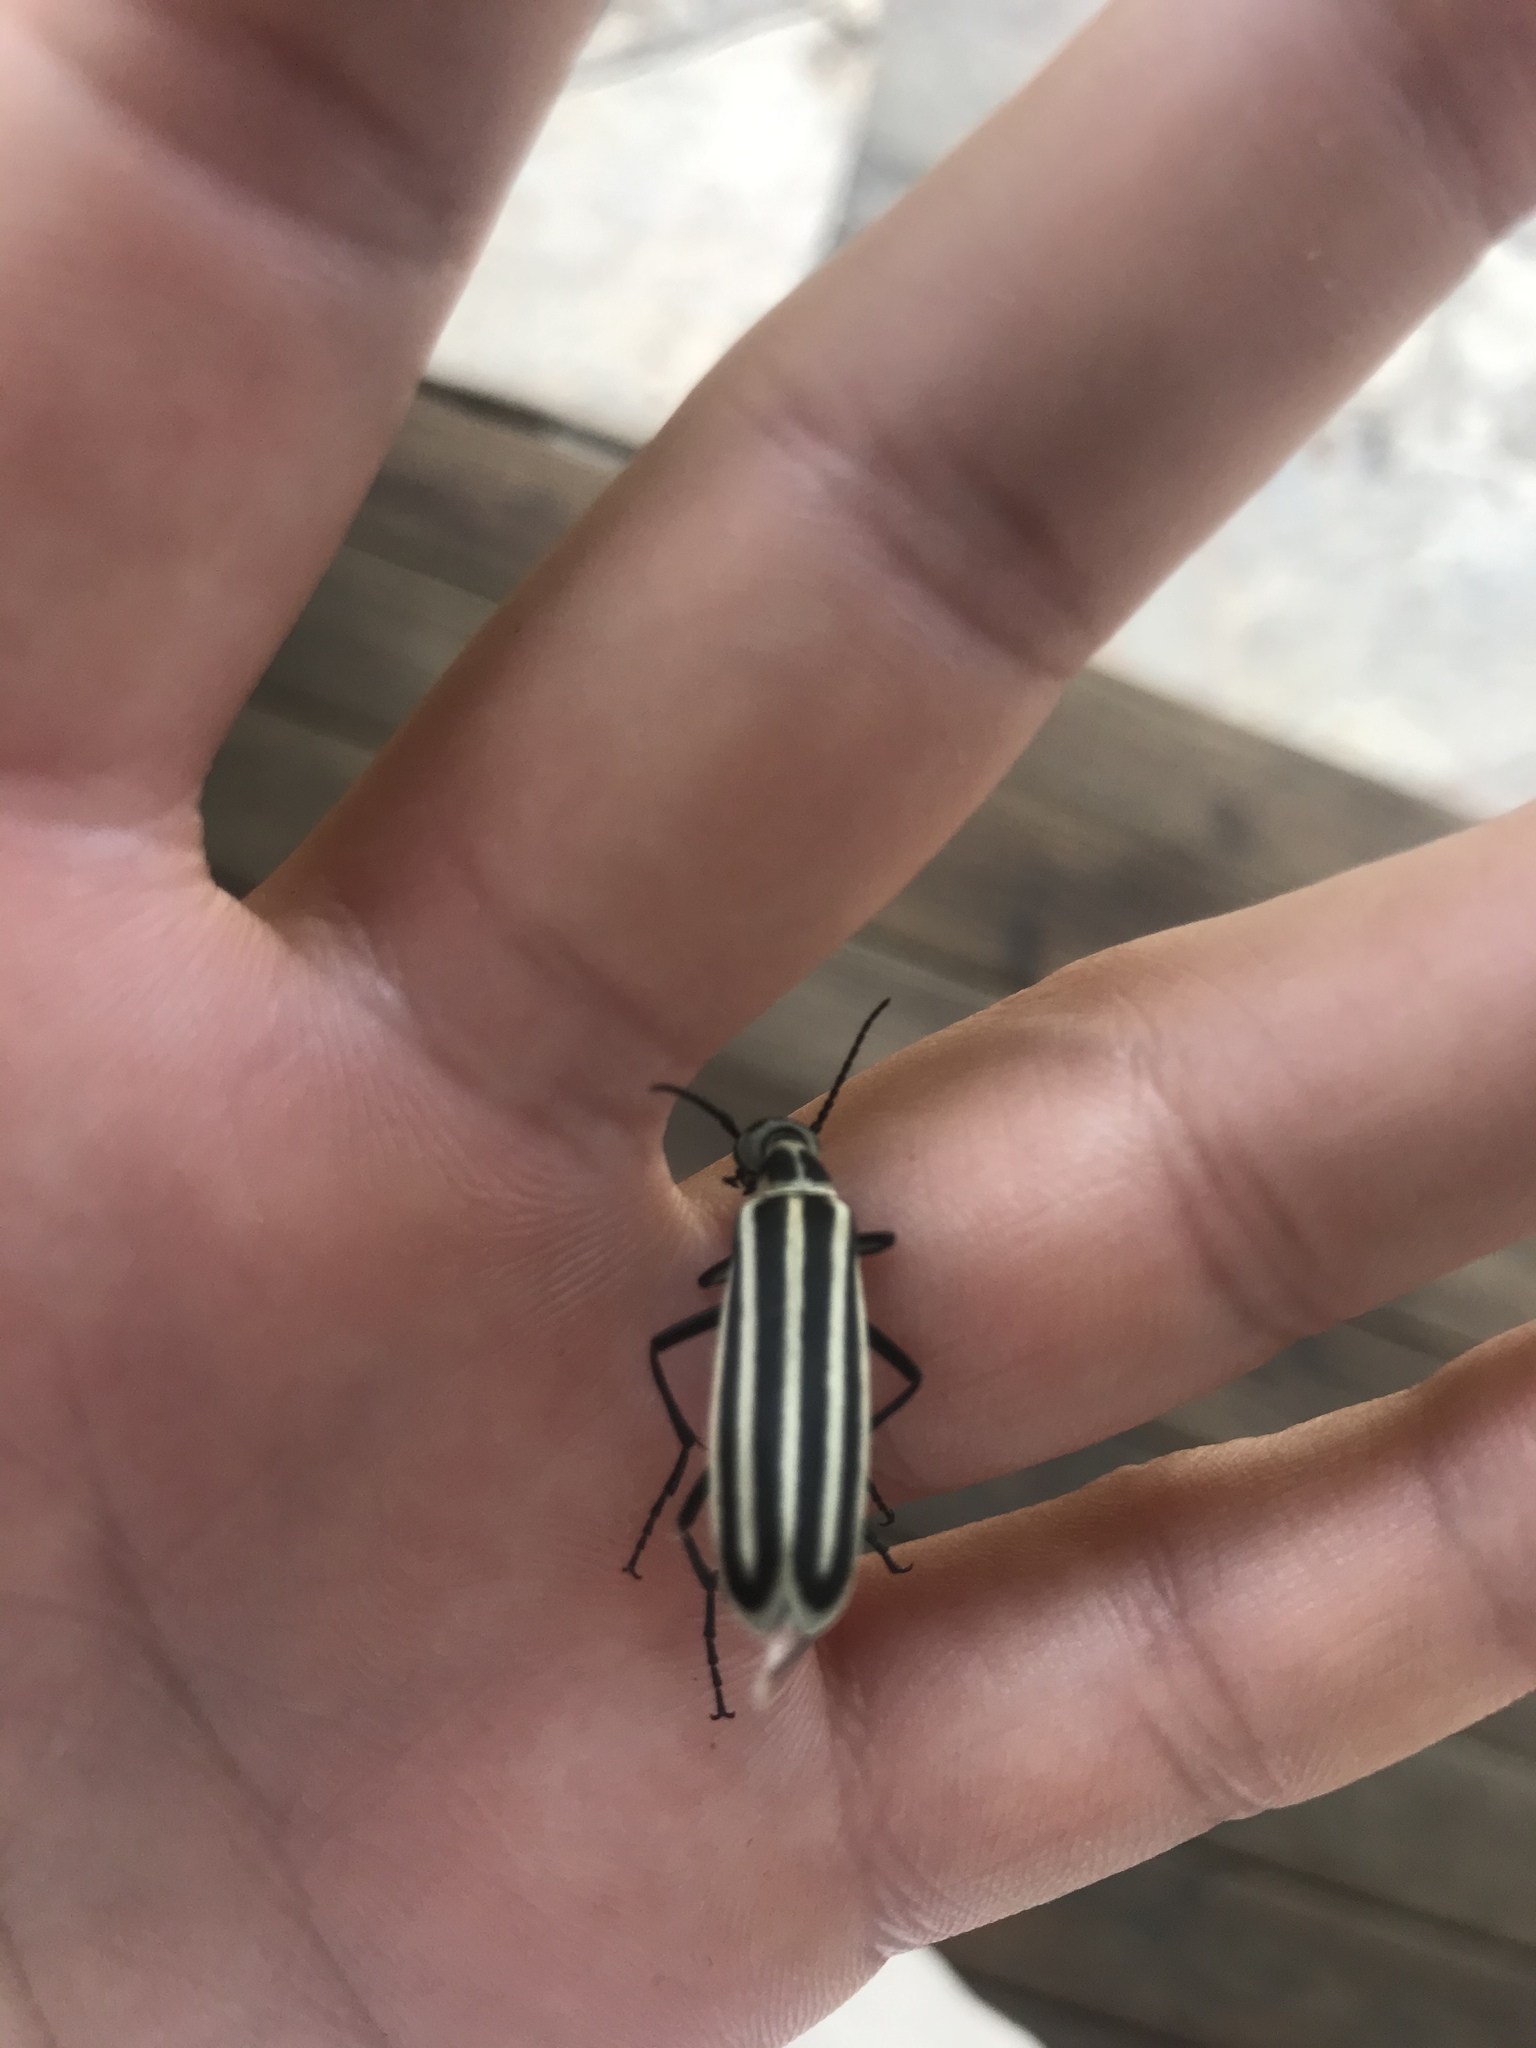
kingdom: Animalia
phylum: Arthropoda
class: Insecta
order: Coleoptera
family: Meloidae
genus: Epicauta
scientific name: Epicauta atrivittata
